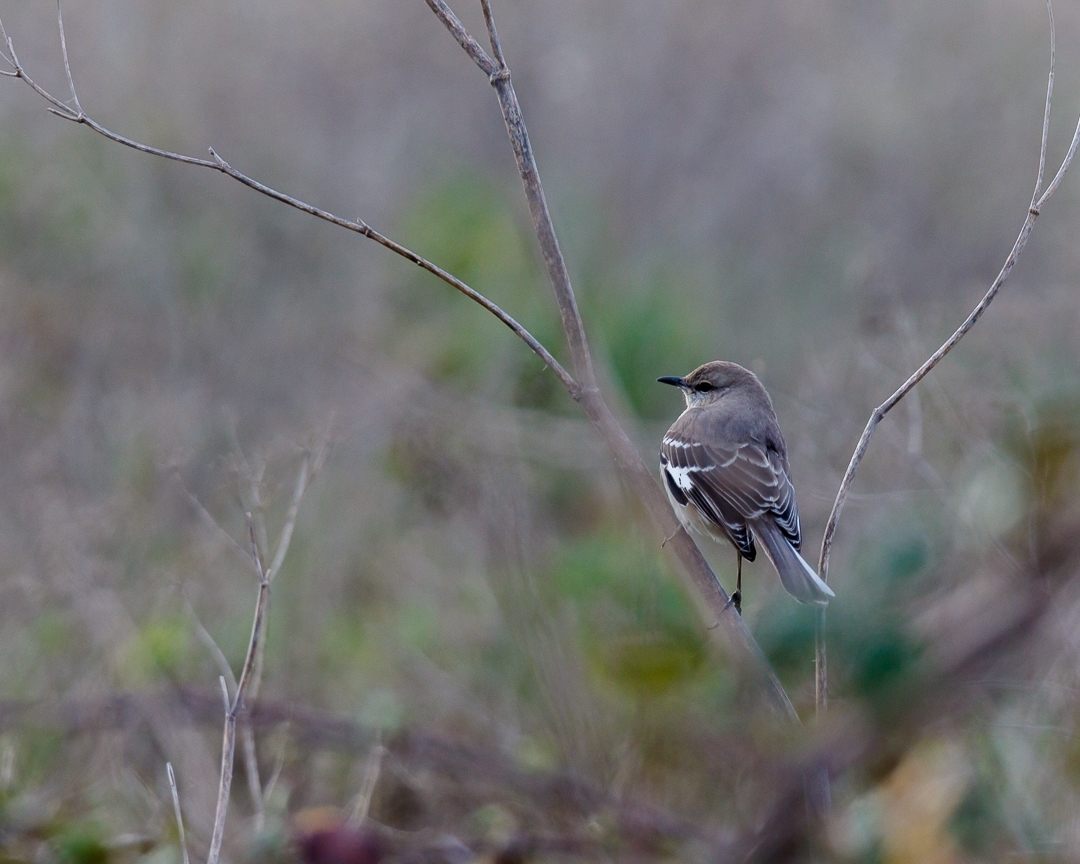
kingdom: Animalia
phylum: Chordata
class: Aves
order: Passeriformes
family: Mimidae
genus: Mimus
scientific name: Mimus polyglottos
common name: Northern mockingbird
